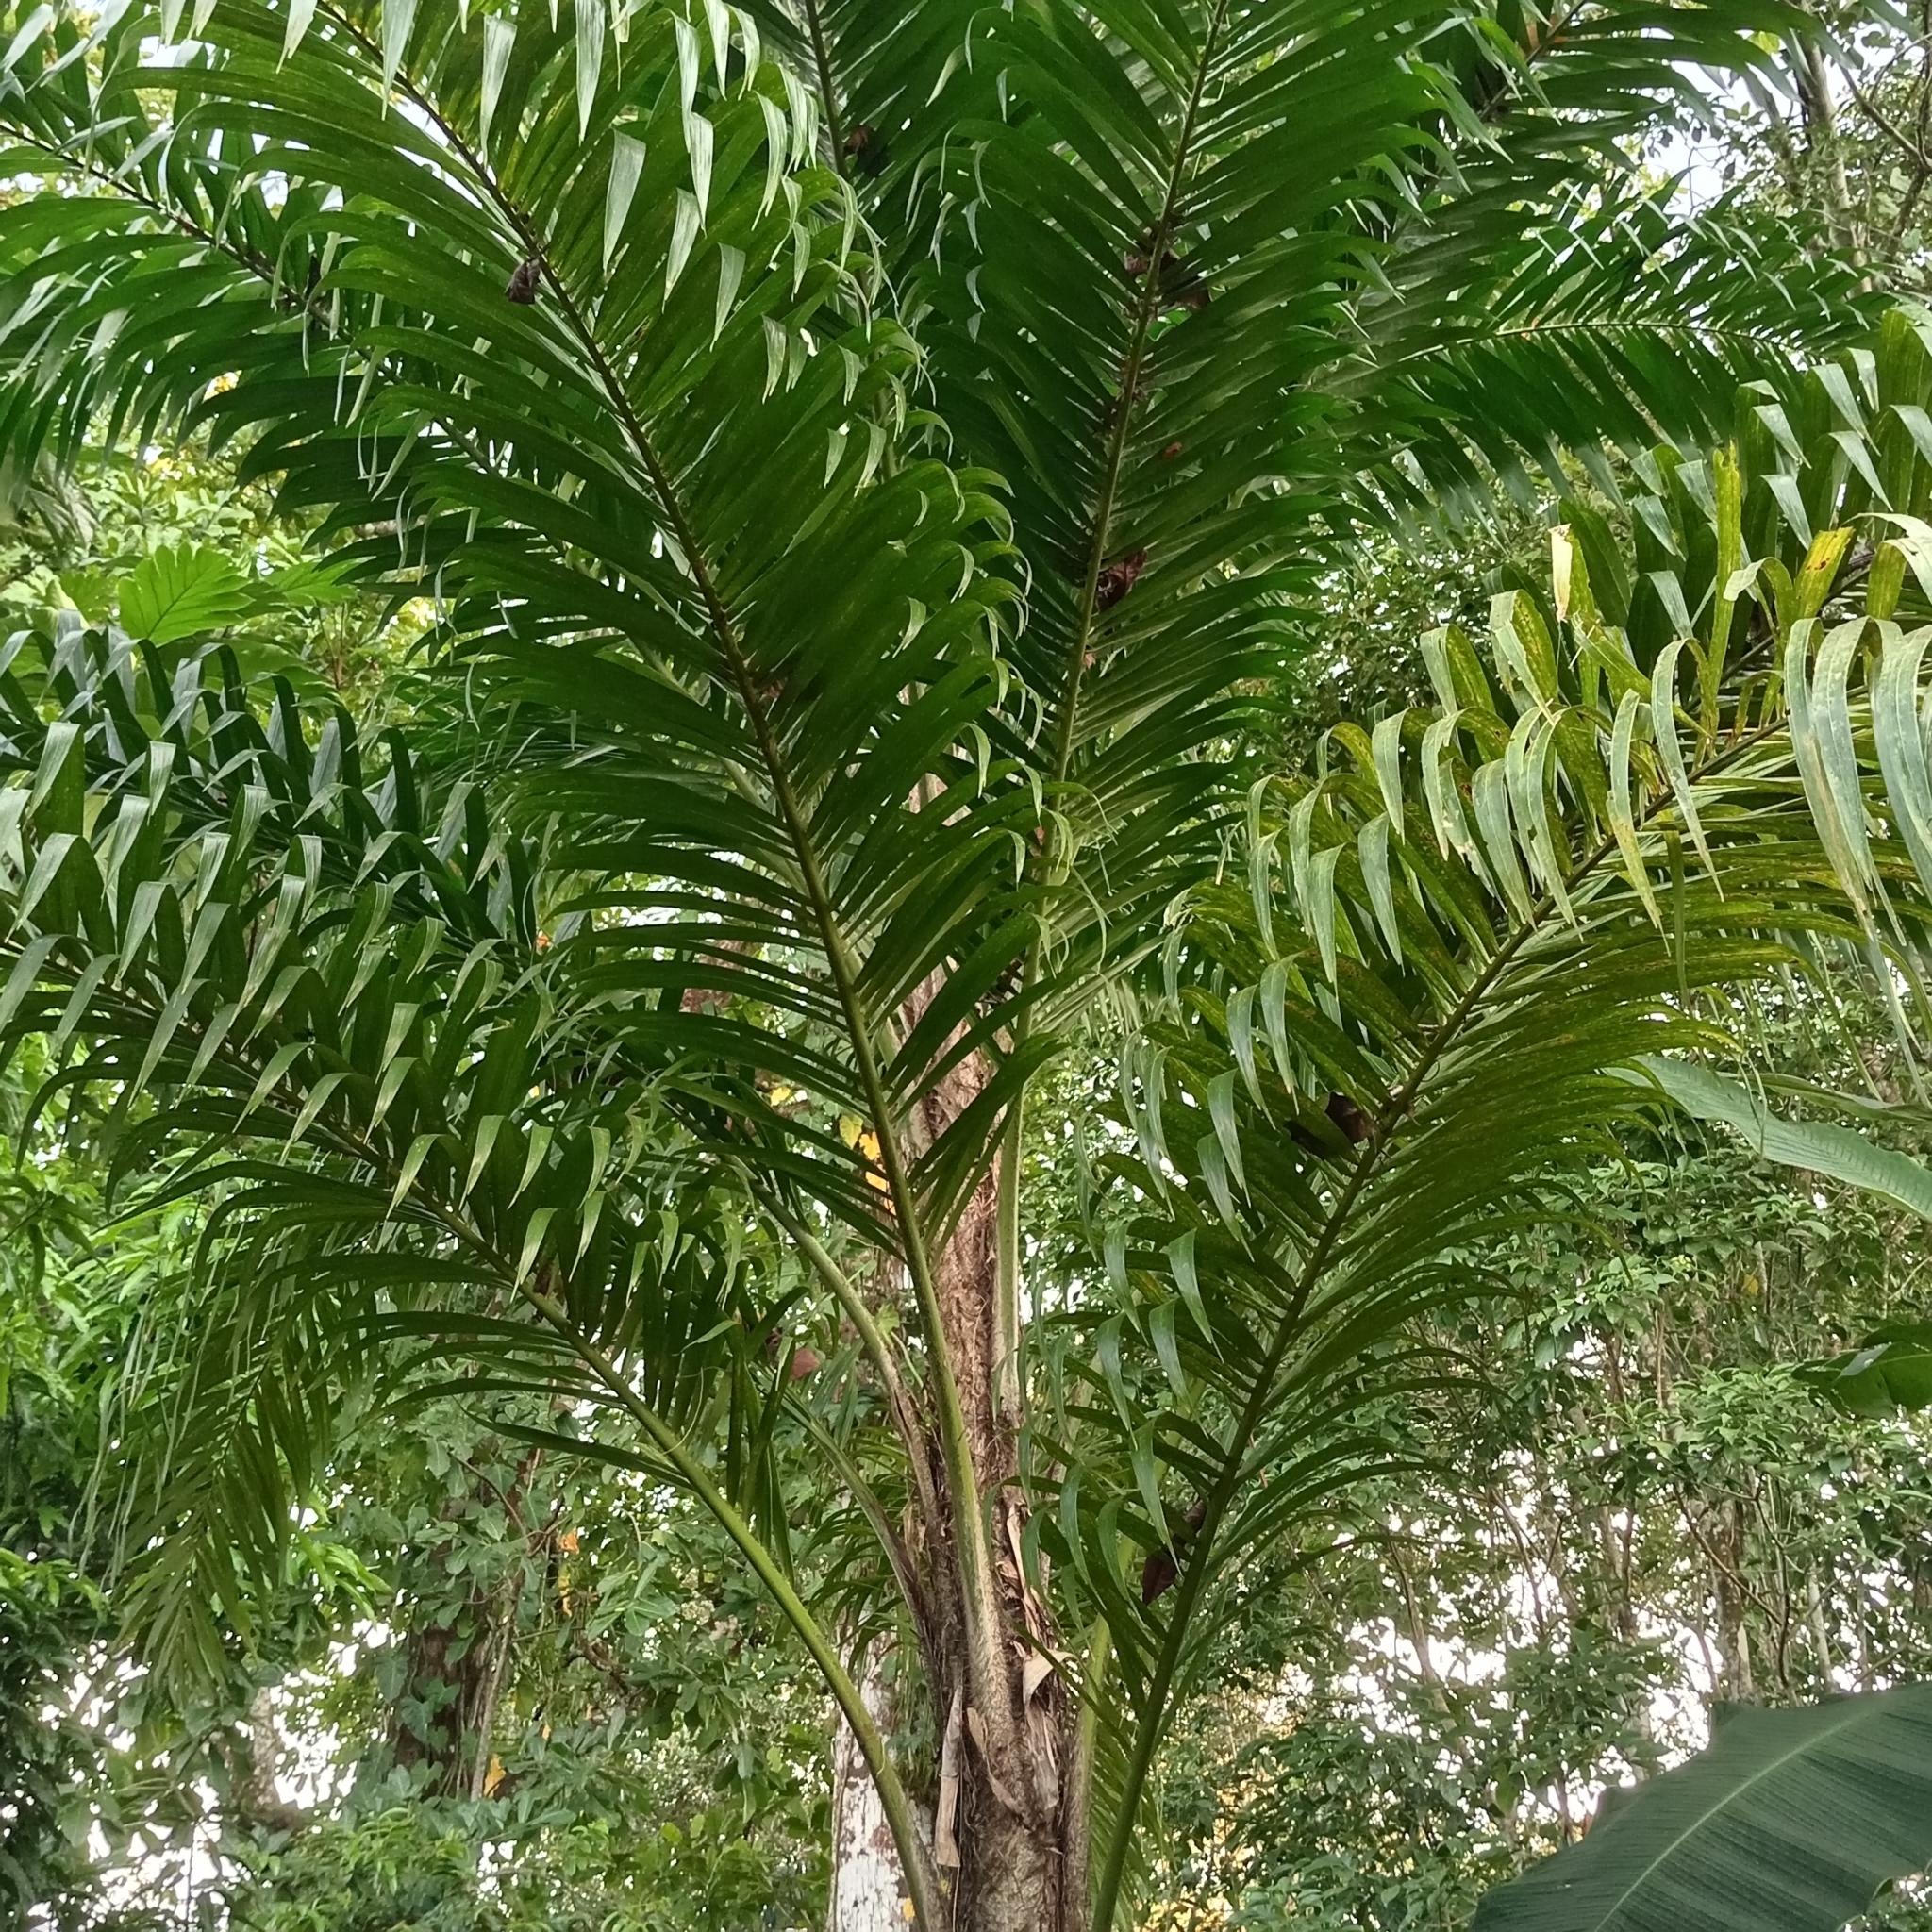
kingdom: Plantae
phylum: Tracheophyta
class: Liliopsida
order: Arecales
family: Arecaceae
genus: Bactris
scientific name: Bactris gasipaes
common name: Peach palm
